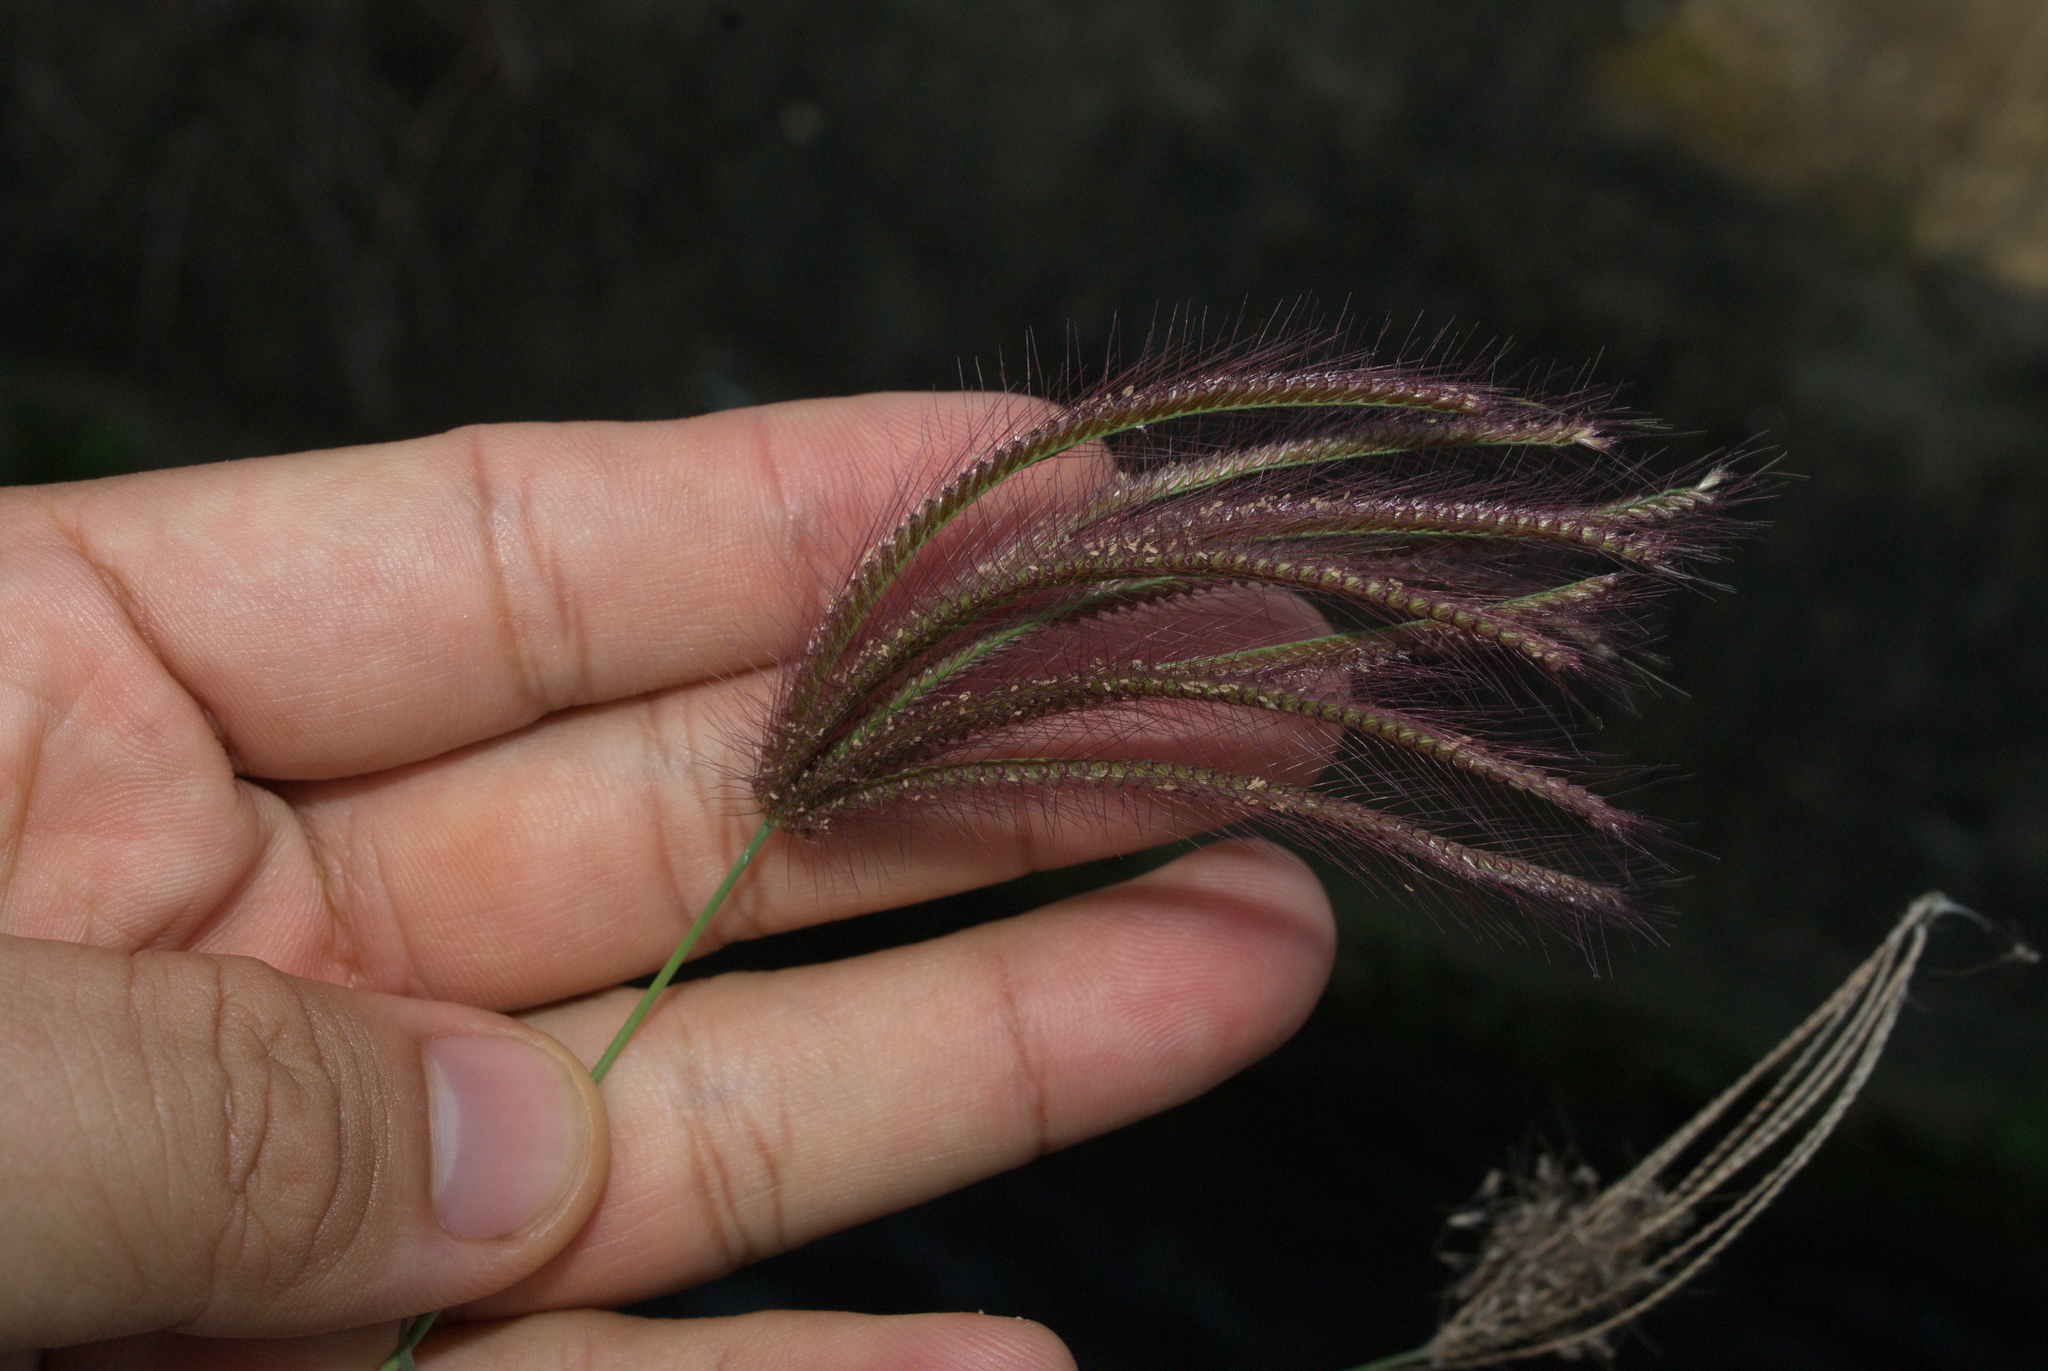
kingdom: Plantae
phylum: Tracheophyta
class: Liliopsida
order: Poales
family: Poaceae
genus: Chloris
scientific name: Chloris barbata
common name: Swollen fingergrass
